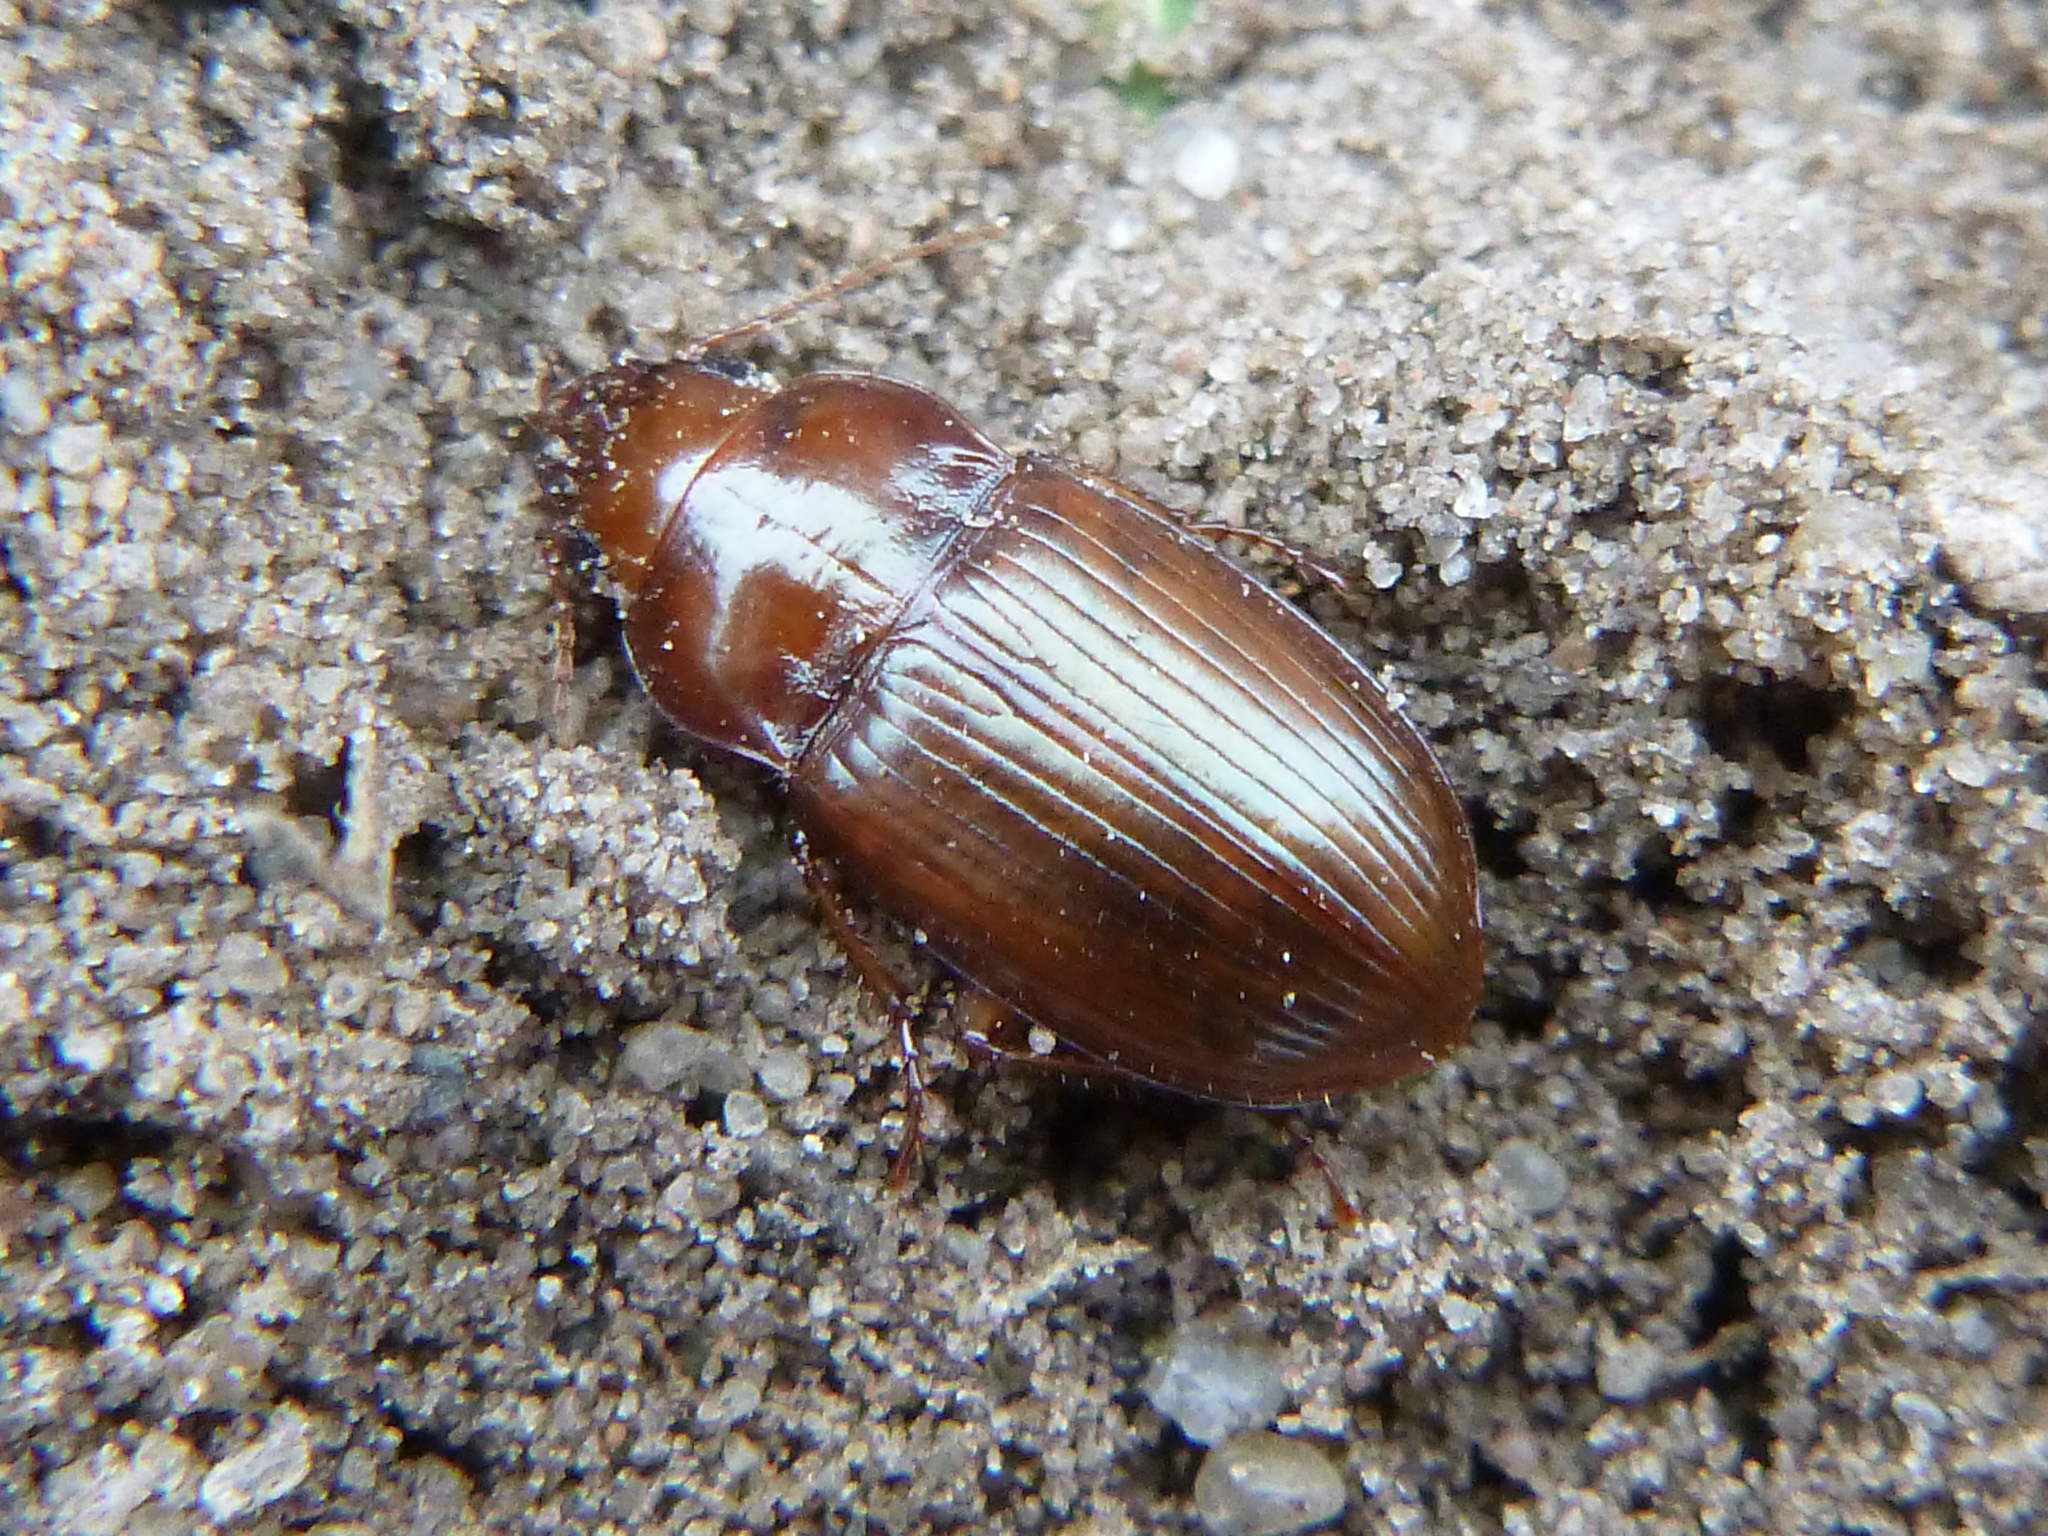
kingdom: Animalia
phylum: Arthropoda
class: Insecta
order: Coleoptera
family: Carabidae
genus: Amara
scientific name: Amara fulva
